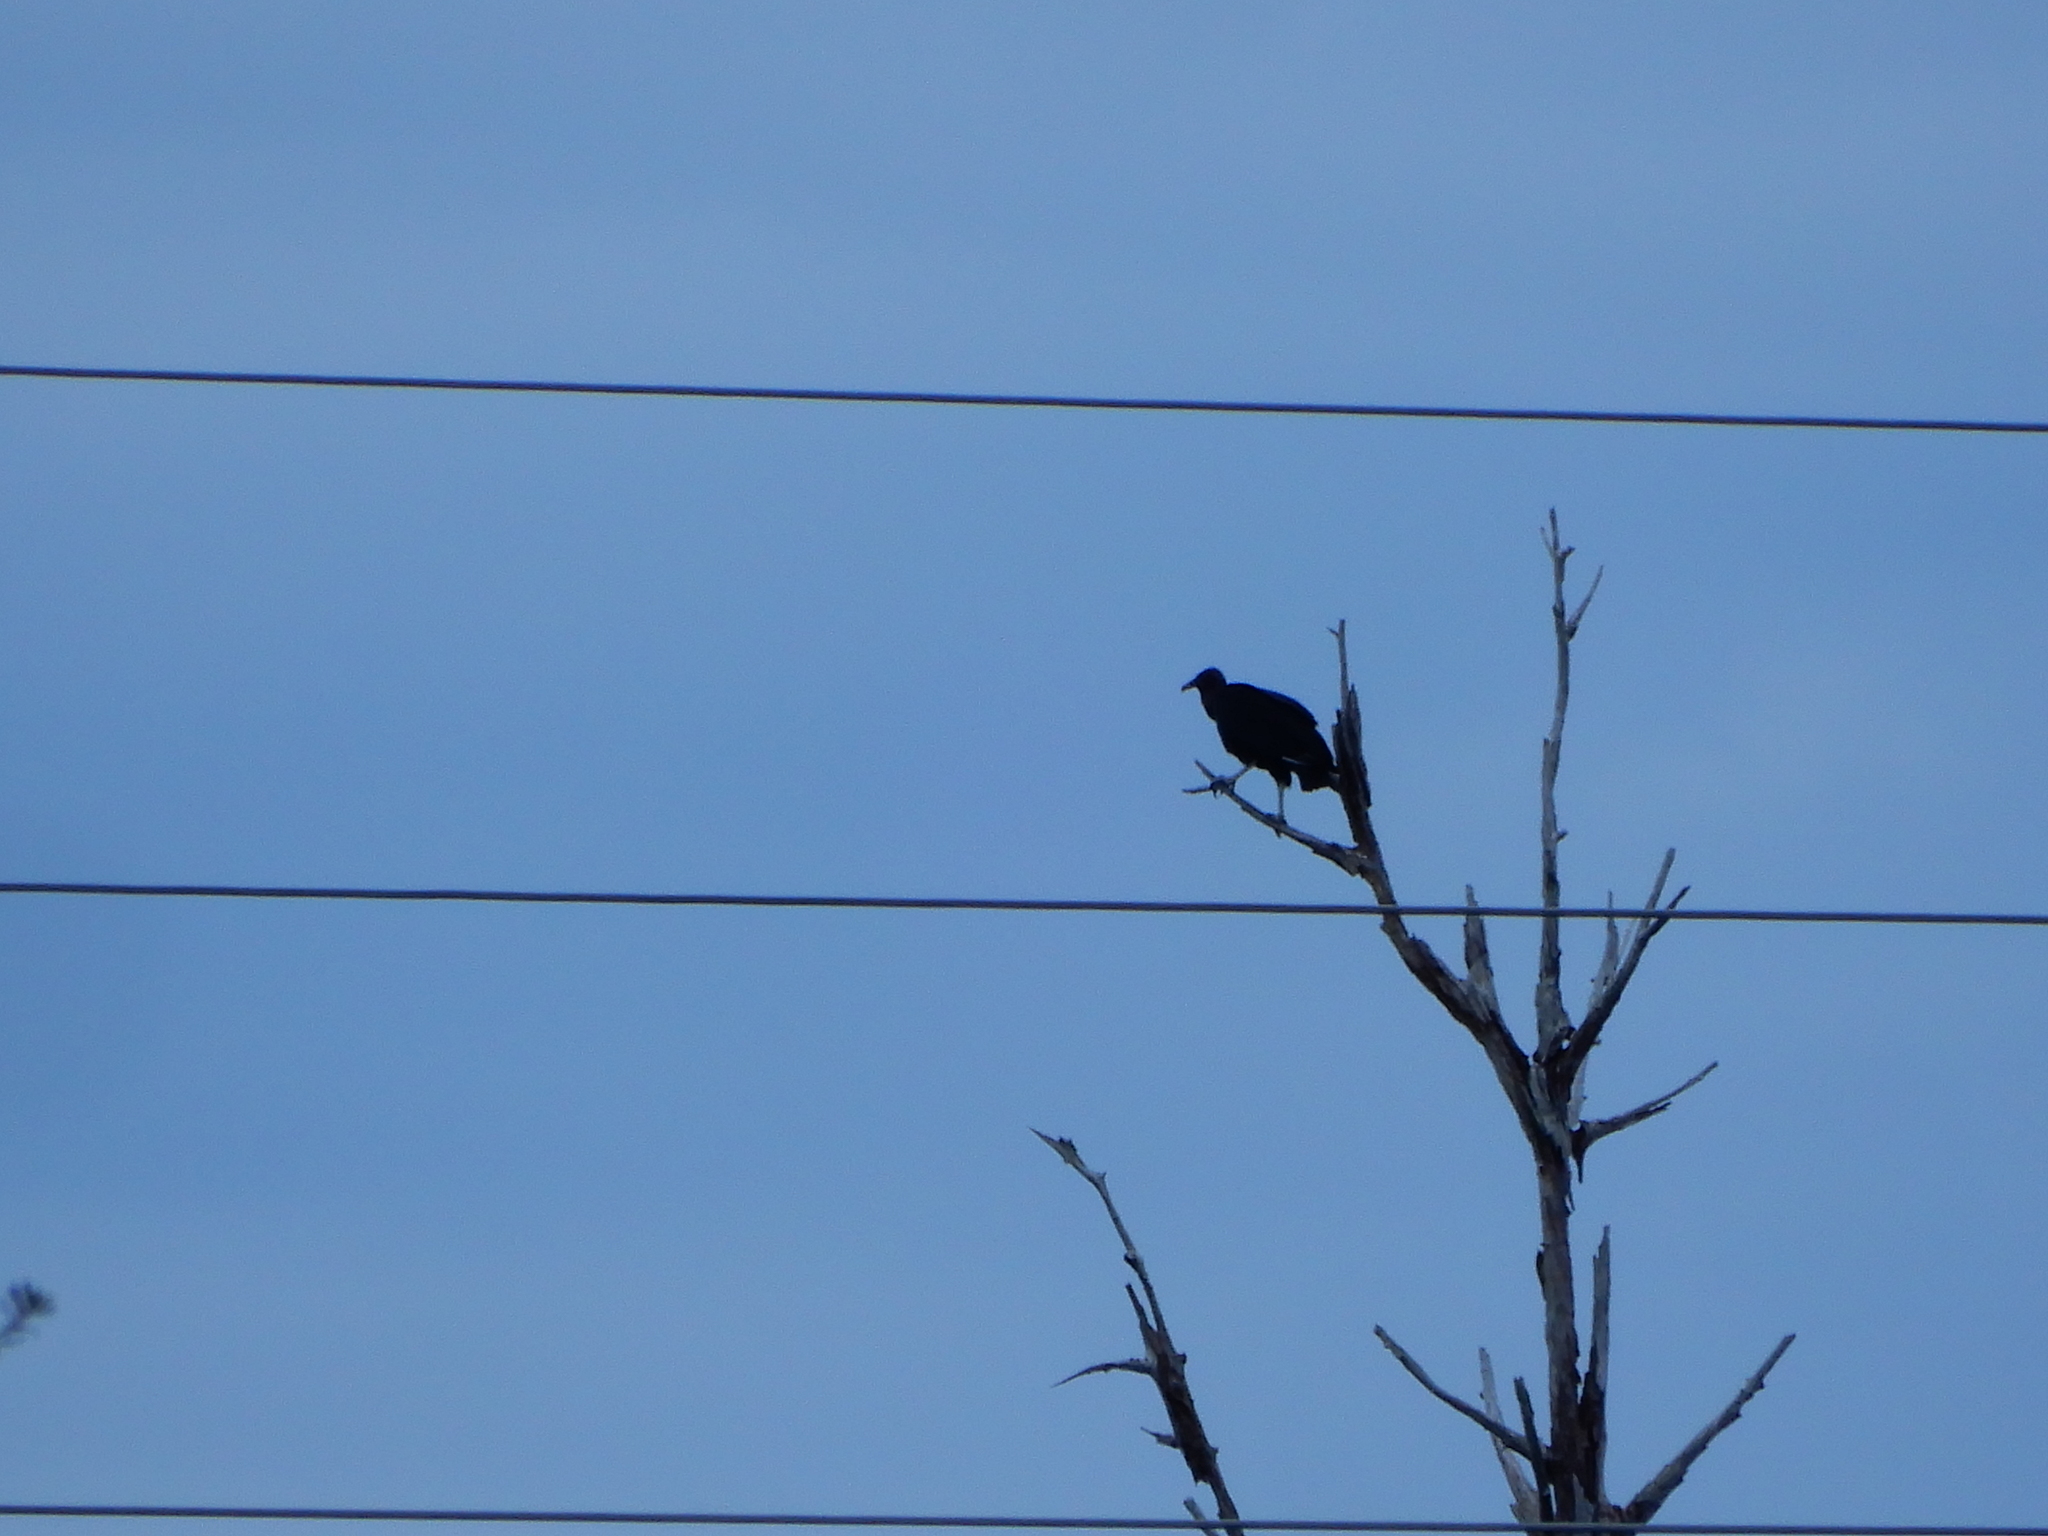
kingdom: Animalia
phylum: Chordata
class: Aves
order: Accipitriformes
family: Cathartidae
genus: Coragyps
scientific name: Coragyps atratus
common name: Black vulture
